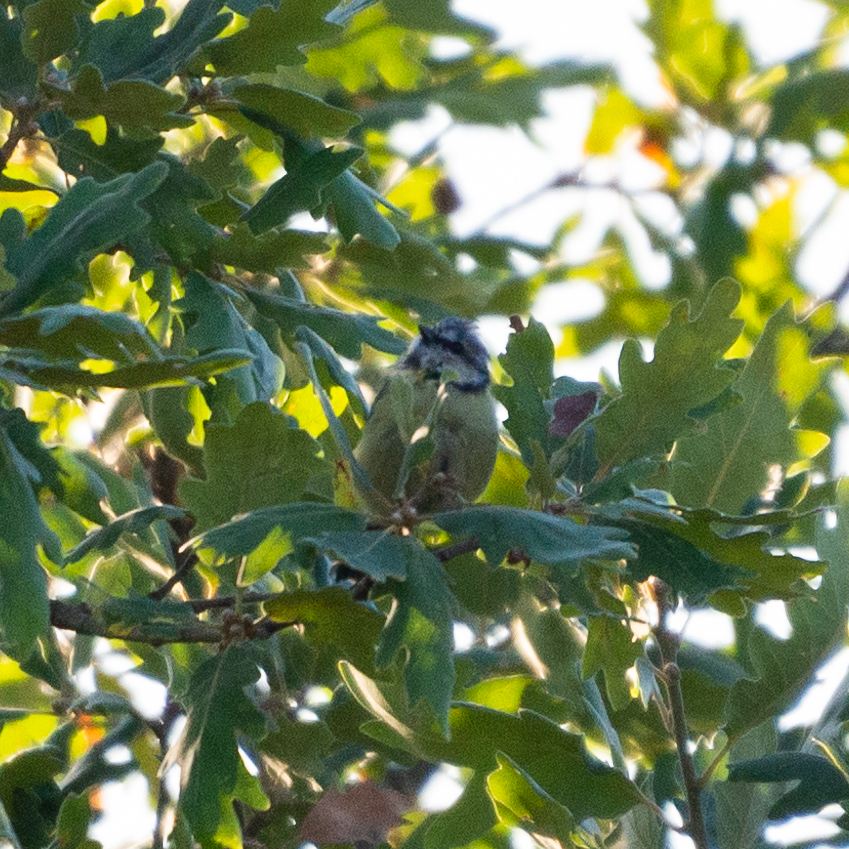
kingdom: Animalia
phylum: Chordata
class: Aves
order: Passeriformes
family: Paridae
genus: Cyanistes
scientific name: Cyanistes caeruleus
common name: Eurasian blue tit
